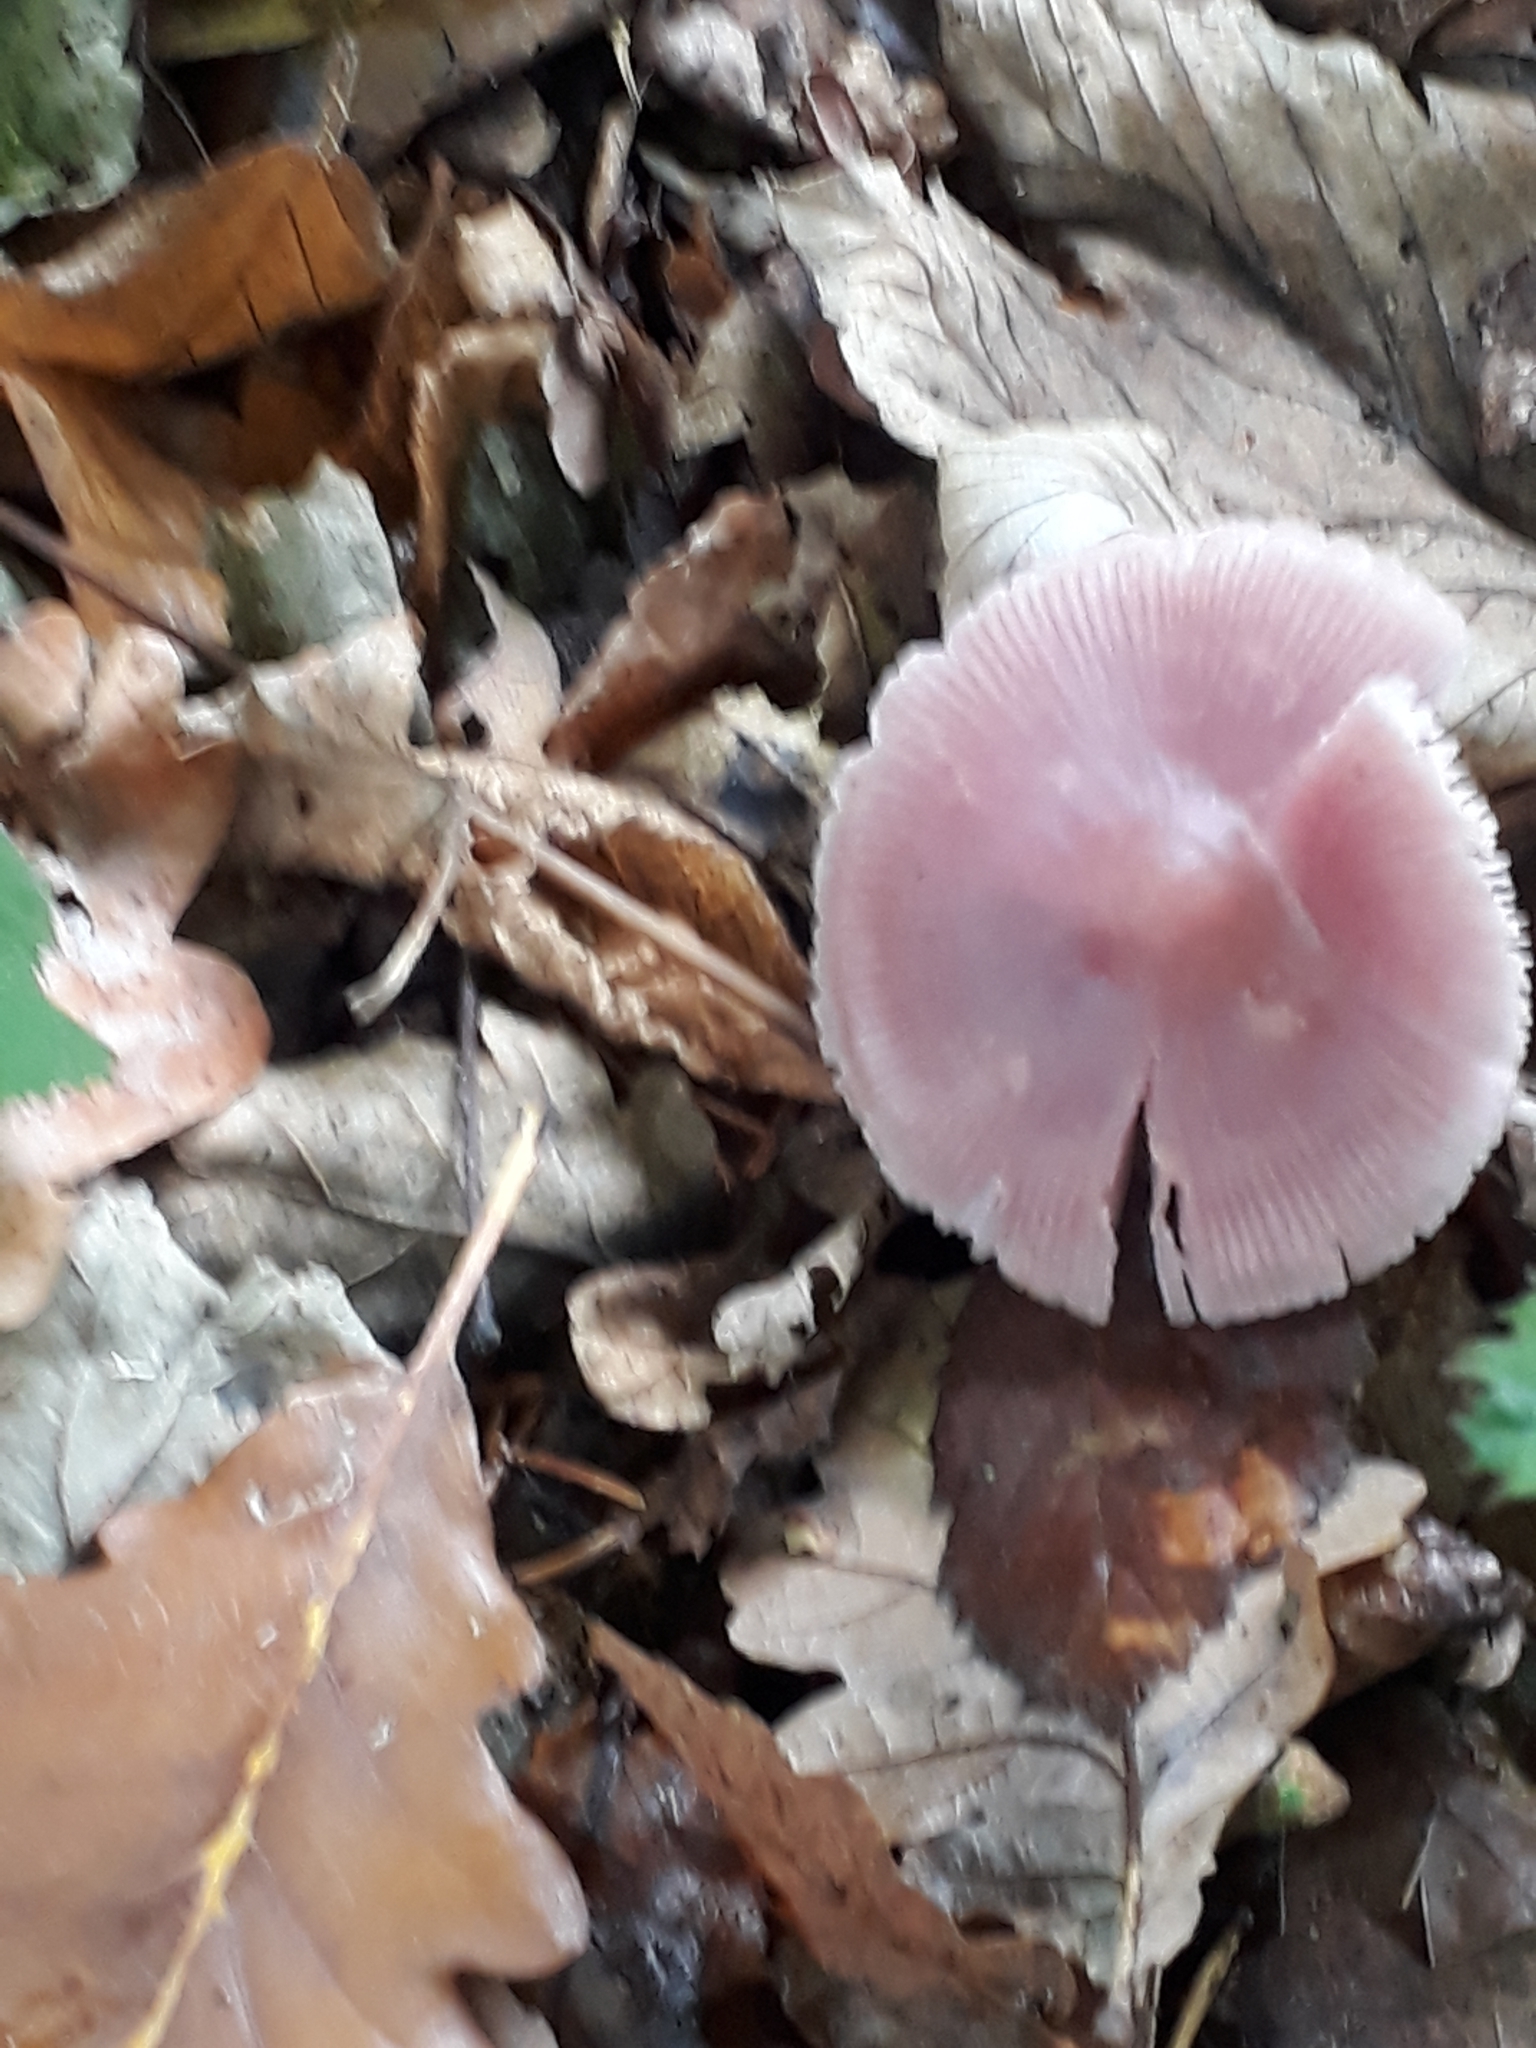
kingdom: Fungi
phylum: Basidiomycota
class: Agaricomycetes
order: Agaricales
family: Mycenaceae
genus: Mycena
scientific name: Mycena rosea
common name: Rosy bonnet
